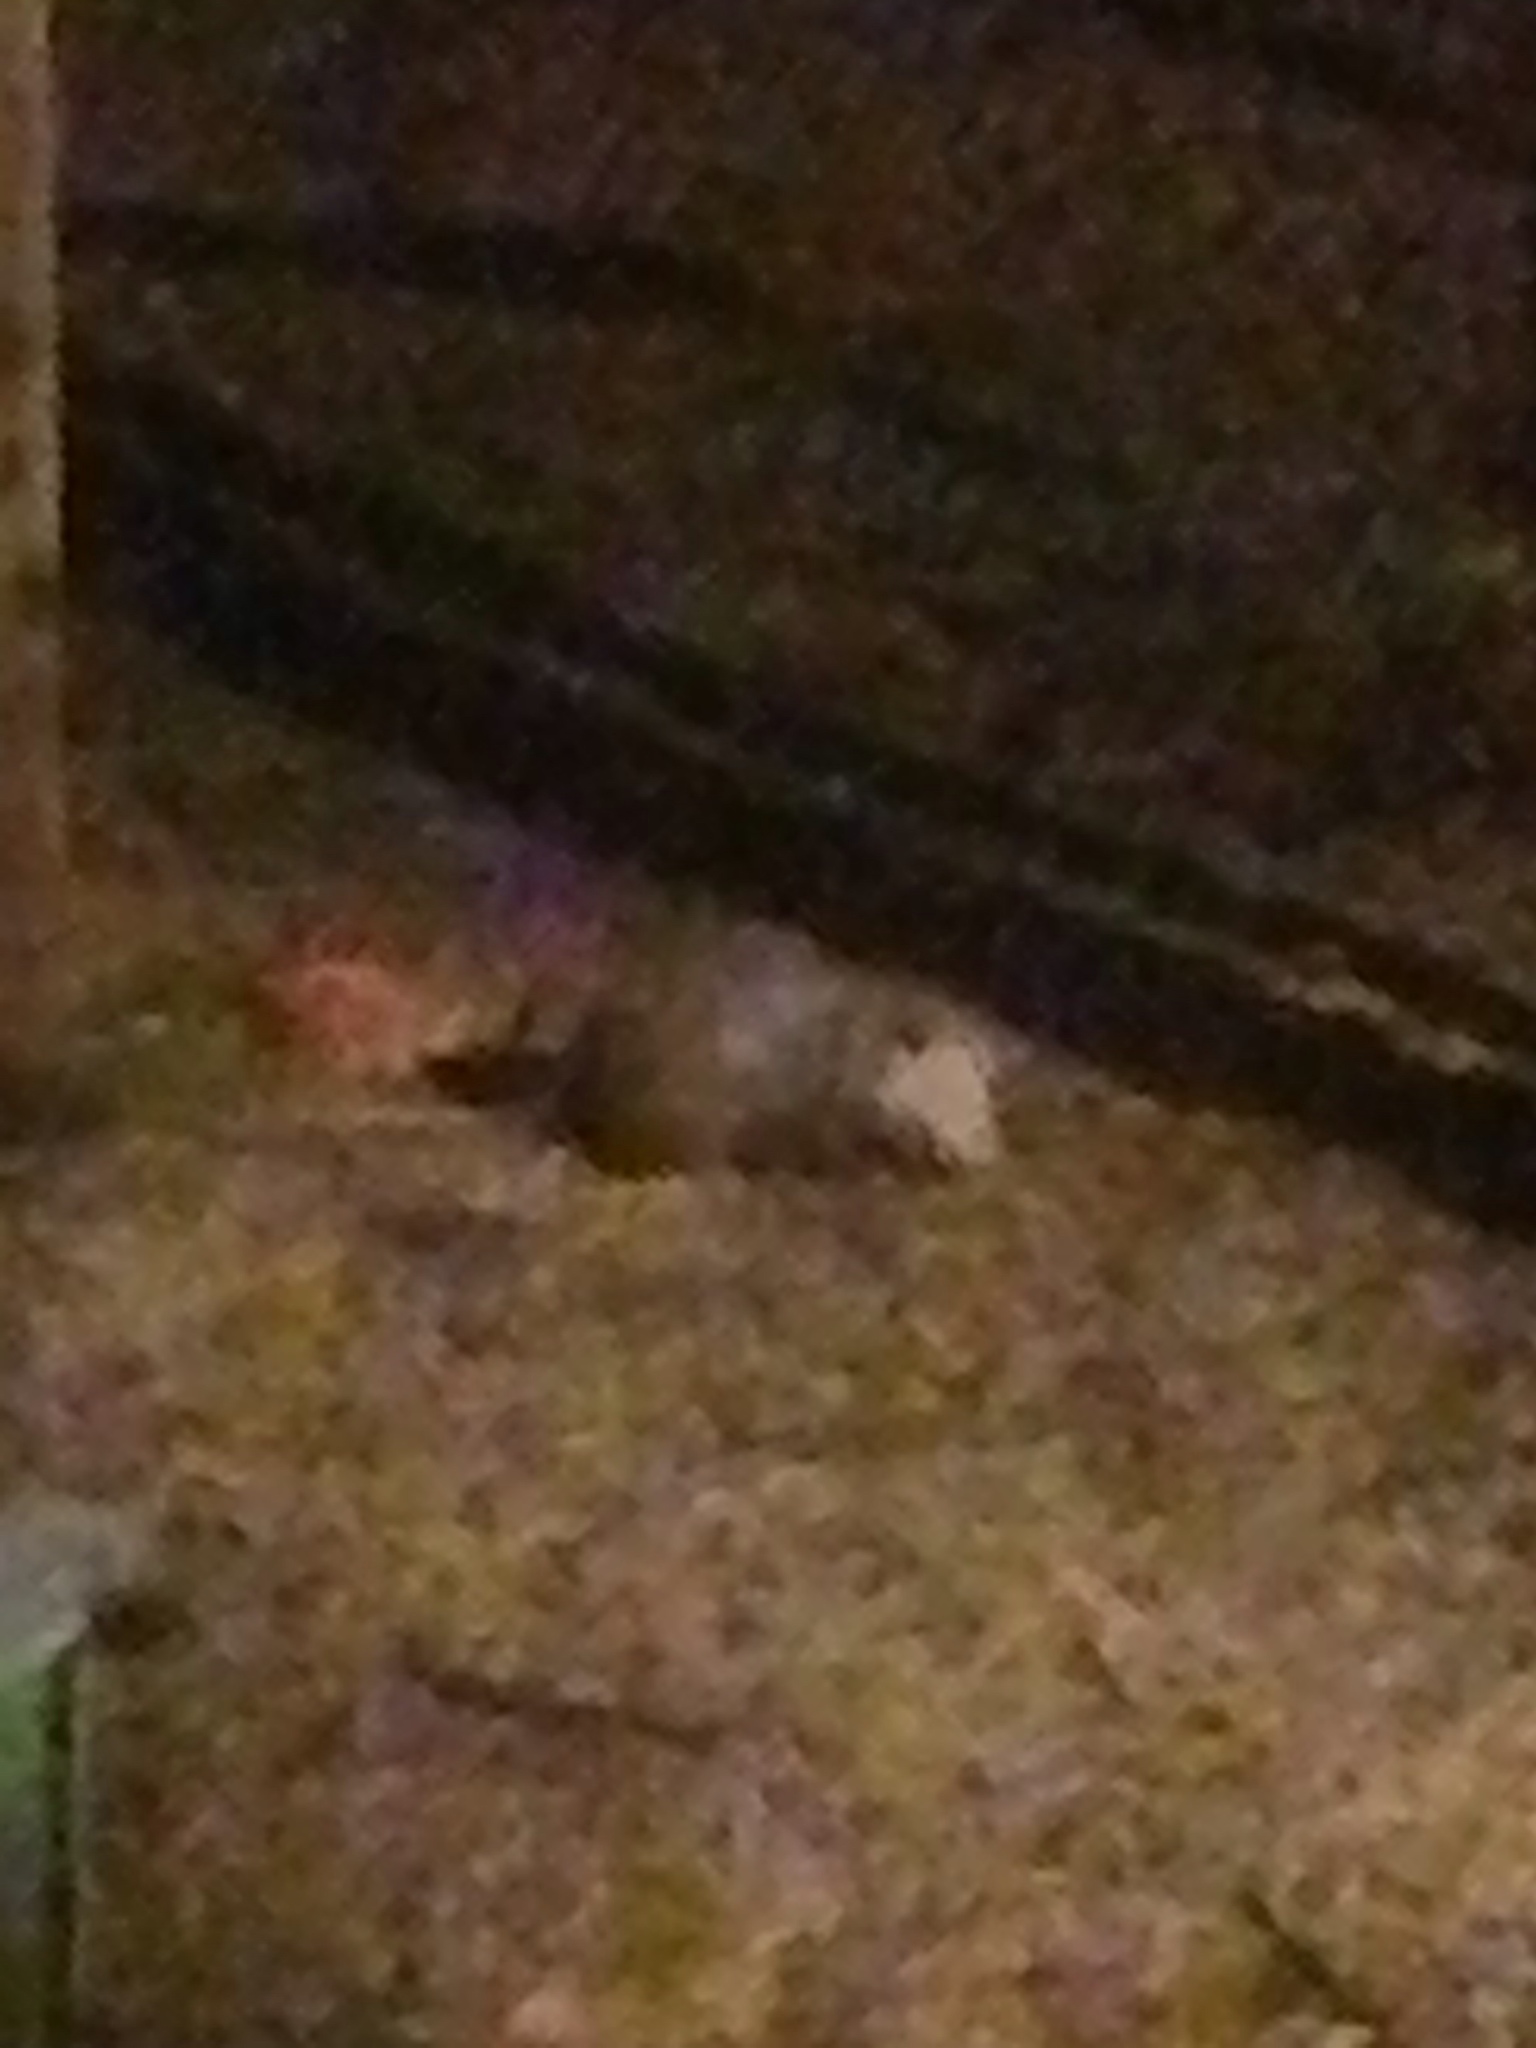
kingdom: Animalia
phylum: Chordata
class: Mammalia
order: Didelphimorphia
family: Didelphidae
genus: Didelphis
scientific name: Didelphis virginiana
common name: Virginia opossum
